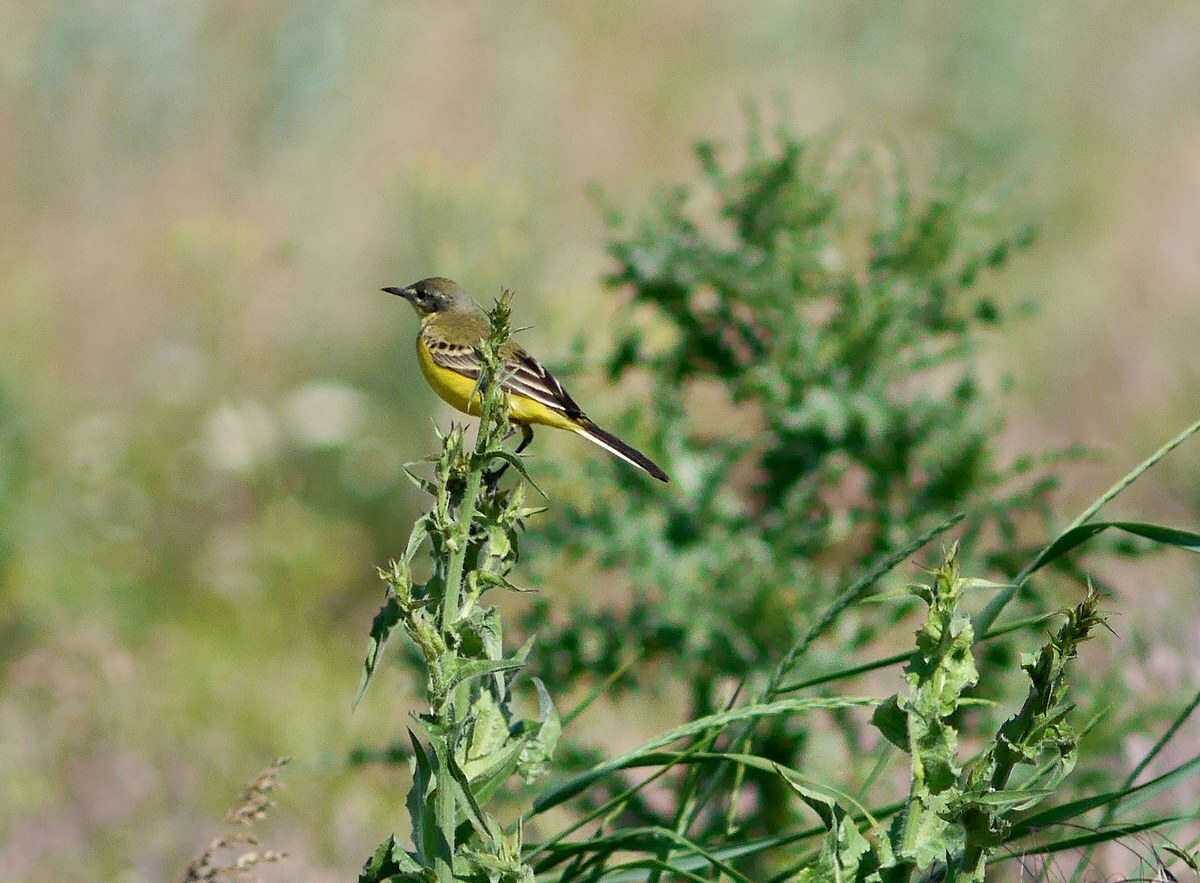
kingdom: Animalia
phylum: Chordata
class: Aves
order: Passeriformes
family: Motacillidae
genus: Motacilla
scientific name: Motacilla flava
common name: Western yellow wagtail
